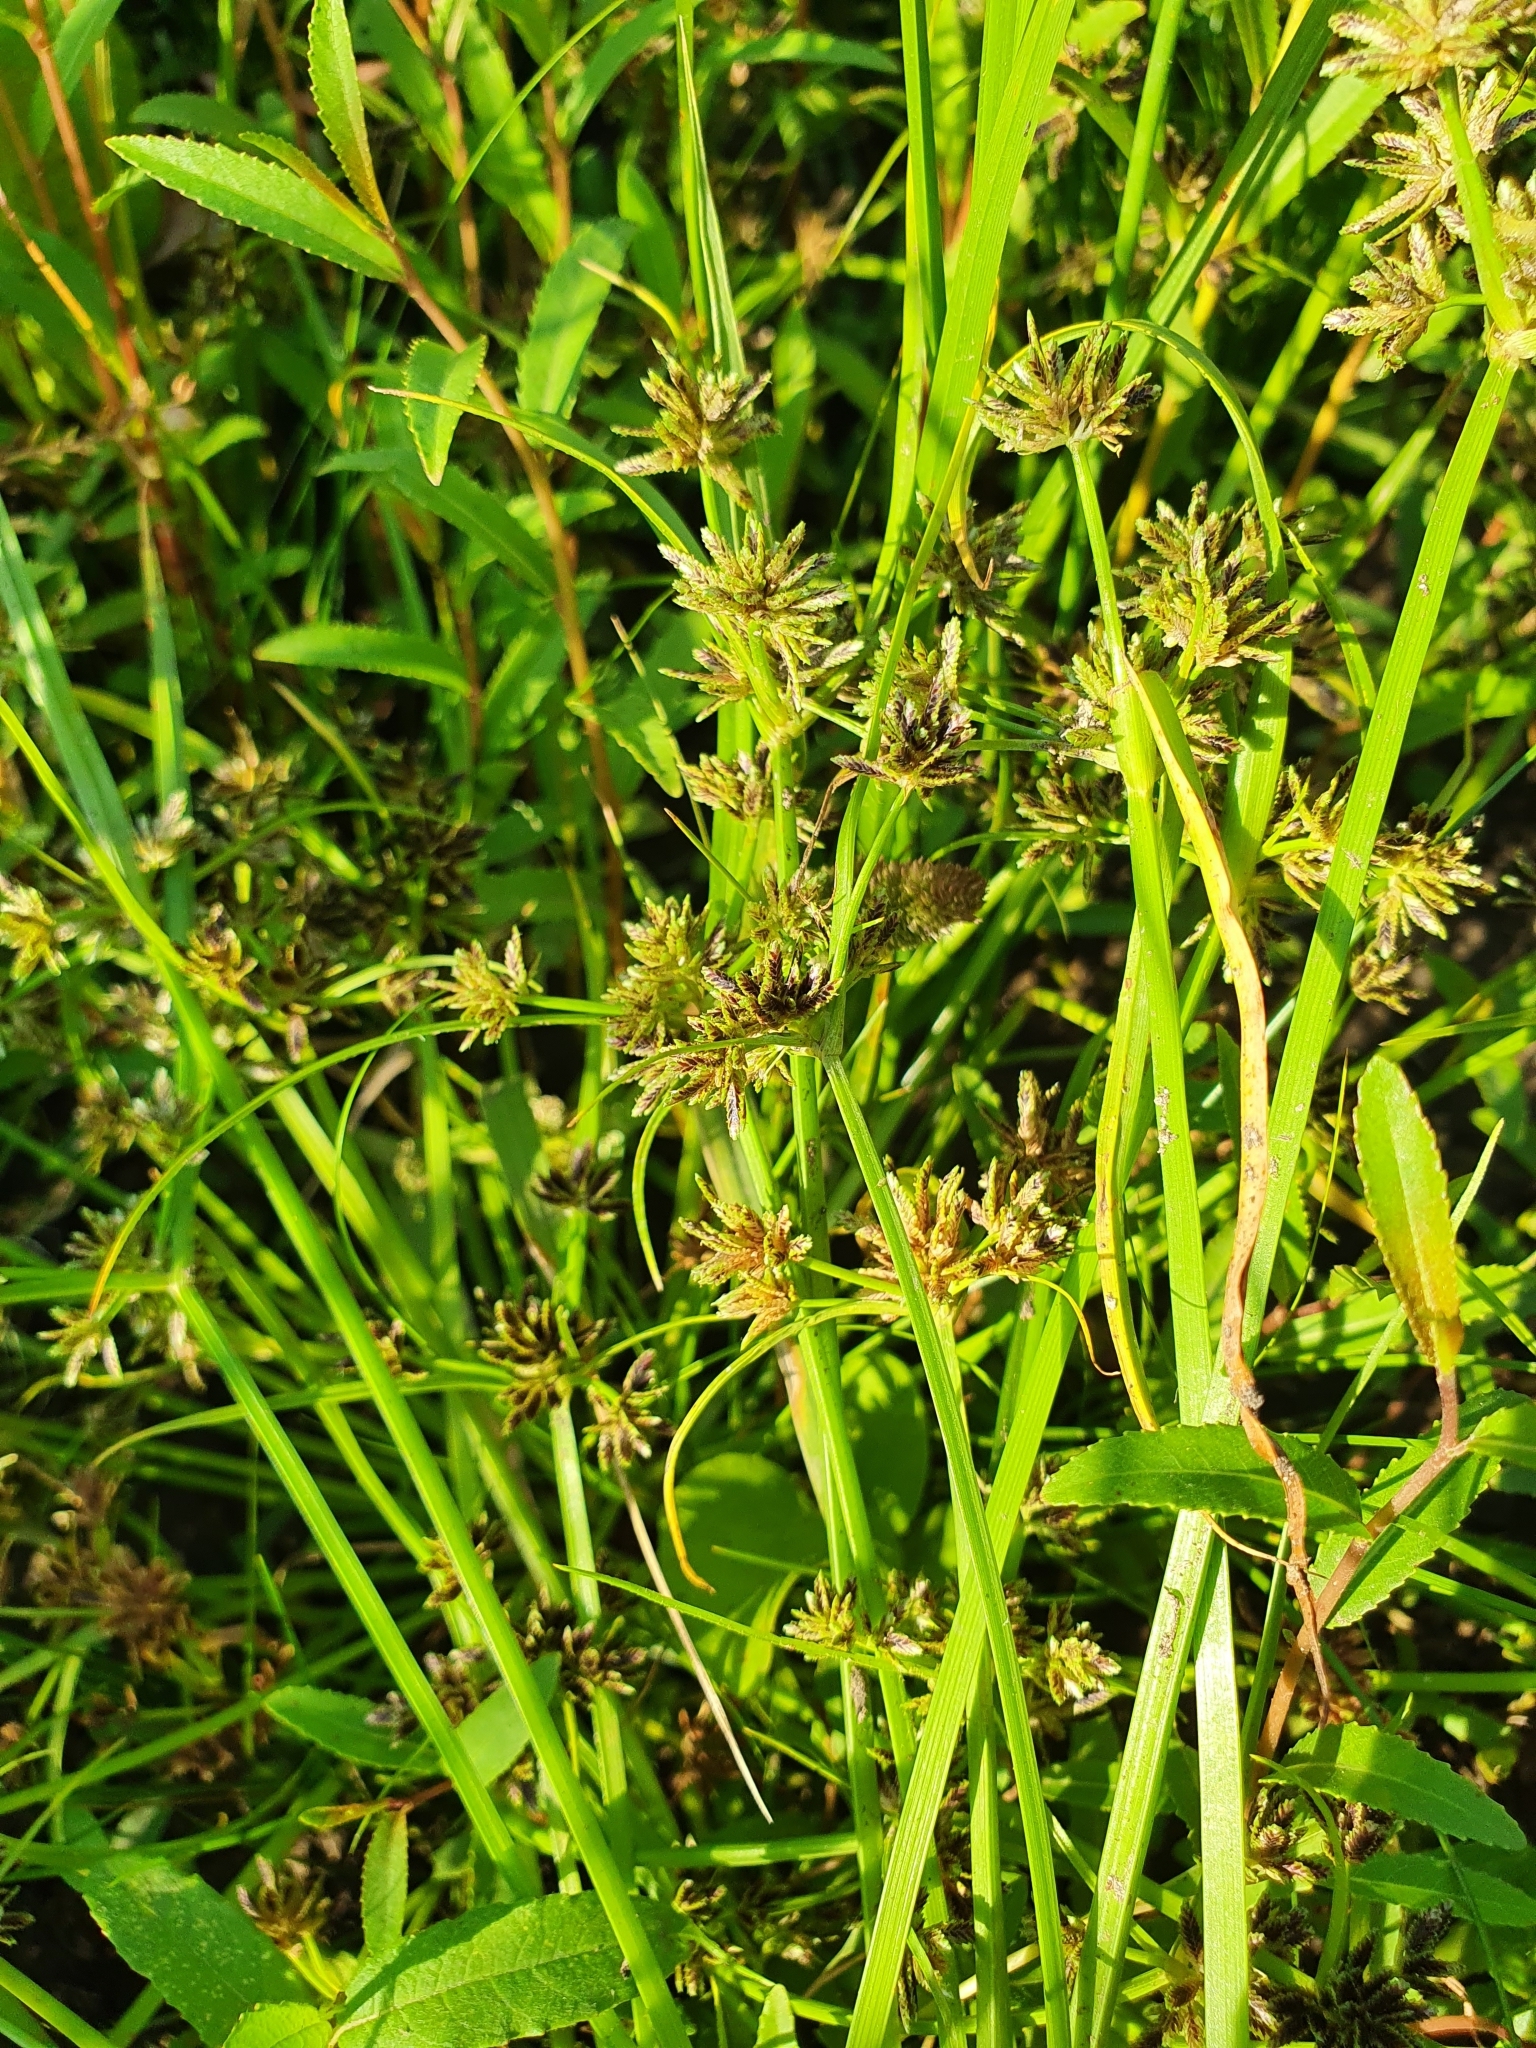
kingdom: Plantae
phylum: Tracheophyta
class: Liliopsida
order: Poales
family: Cyperaceae
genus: Cyperus
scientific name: Cyperus fuscus
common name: Brown galingale
